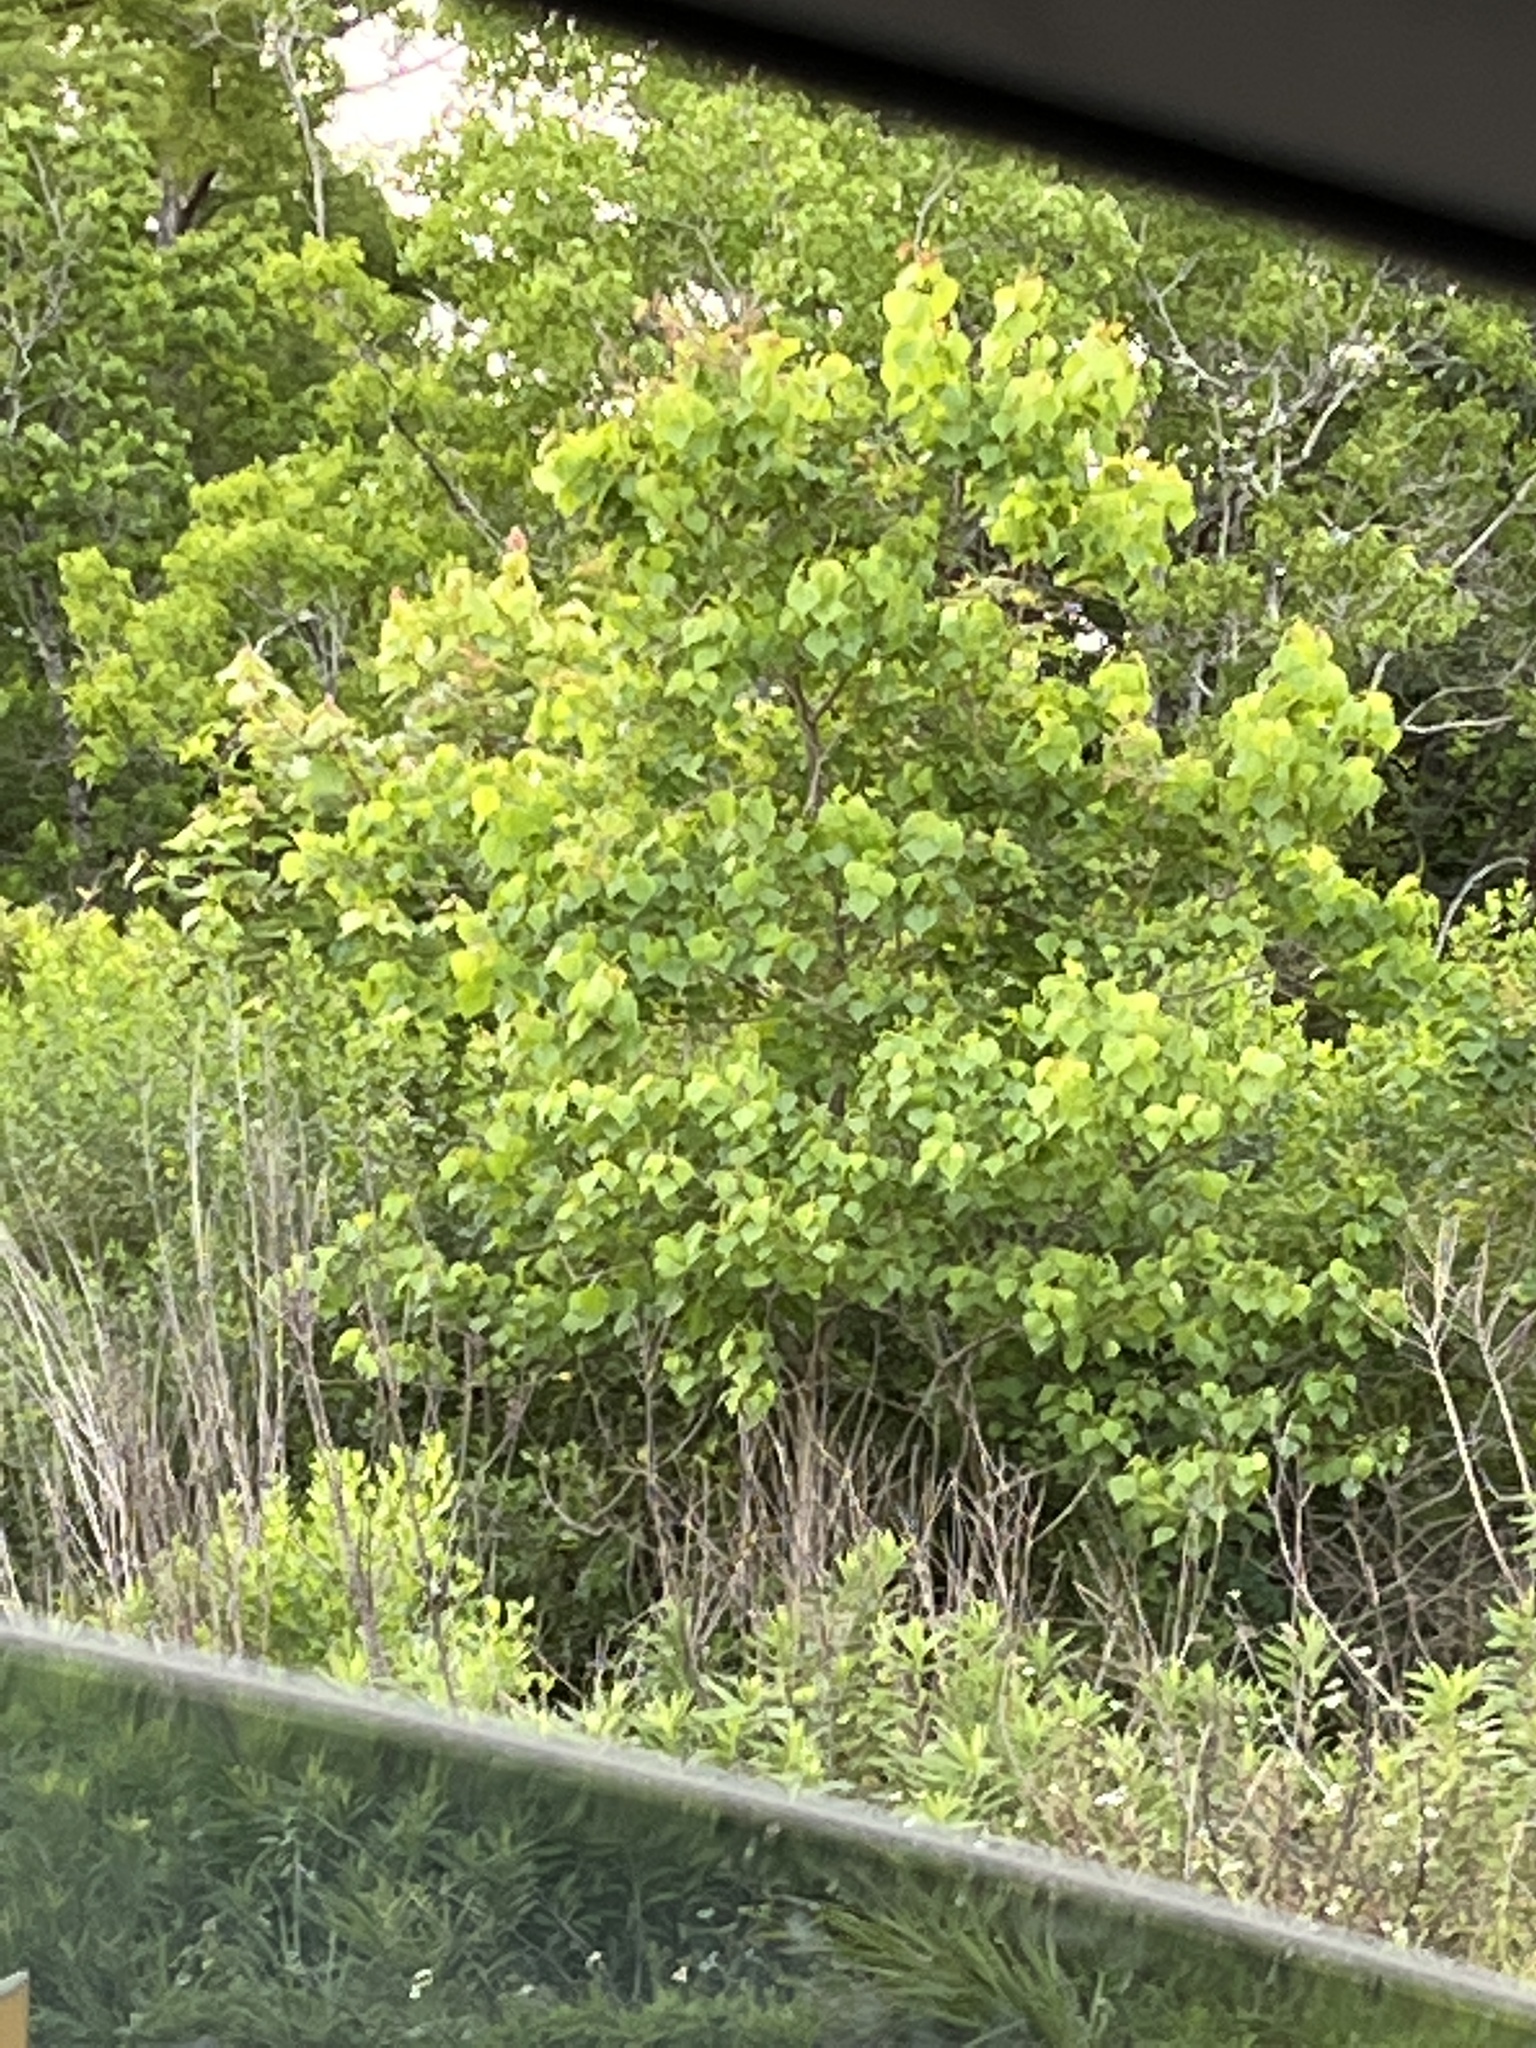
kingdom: Plantae
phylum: Tracheophyta
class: Magnoliopsida
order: Malpighiales
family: Euphorbiaceae
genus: Triadica
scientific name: Triadica sebifera
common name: Chinese tallow
